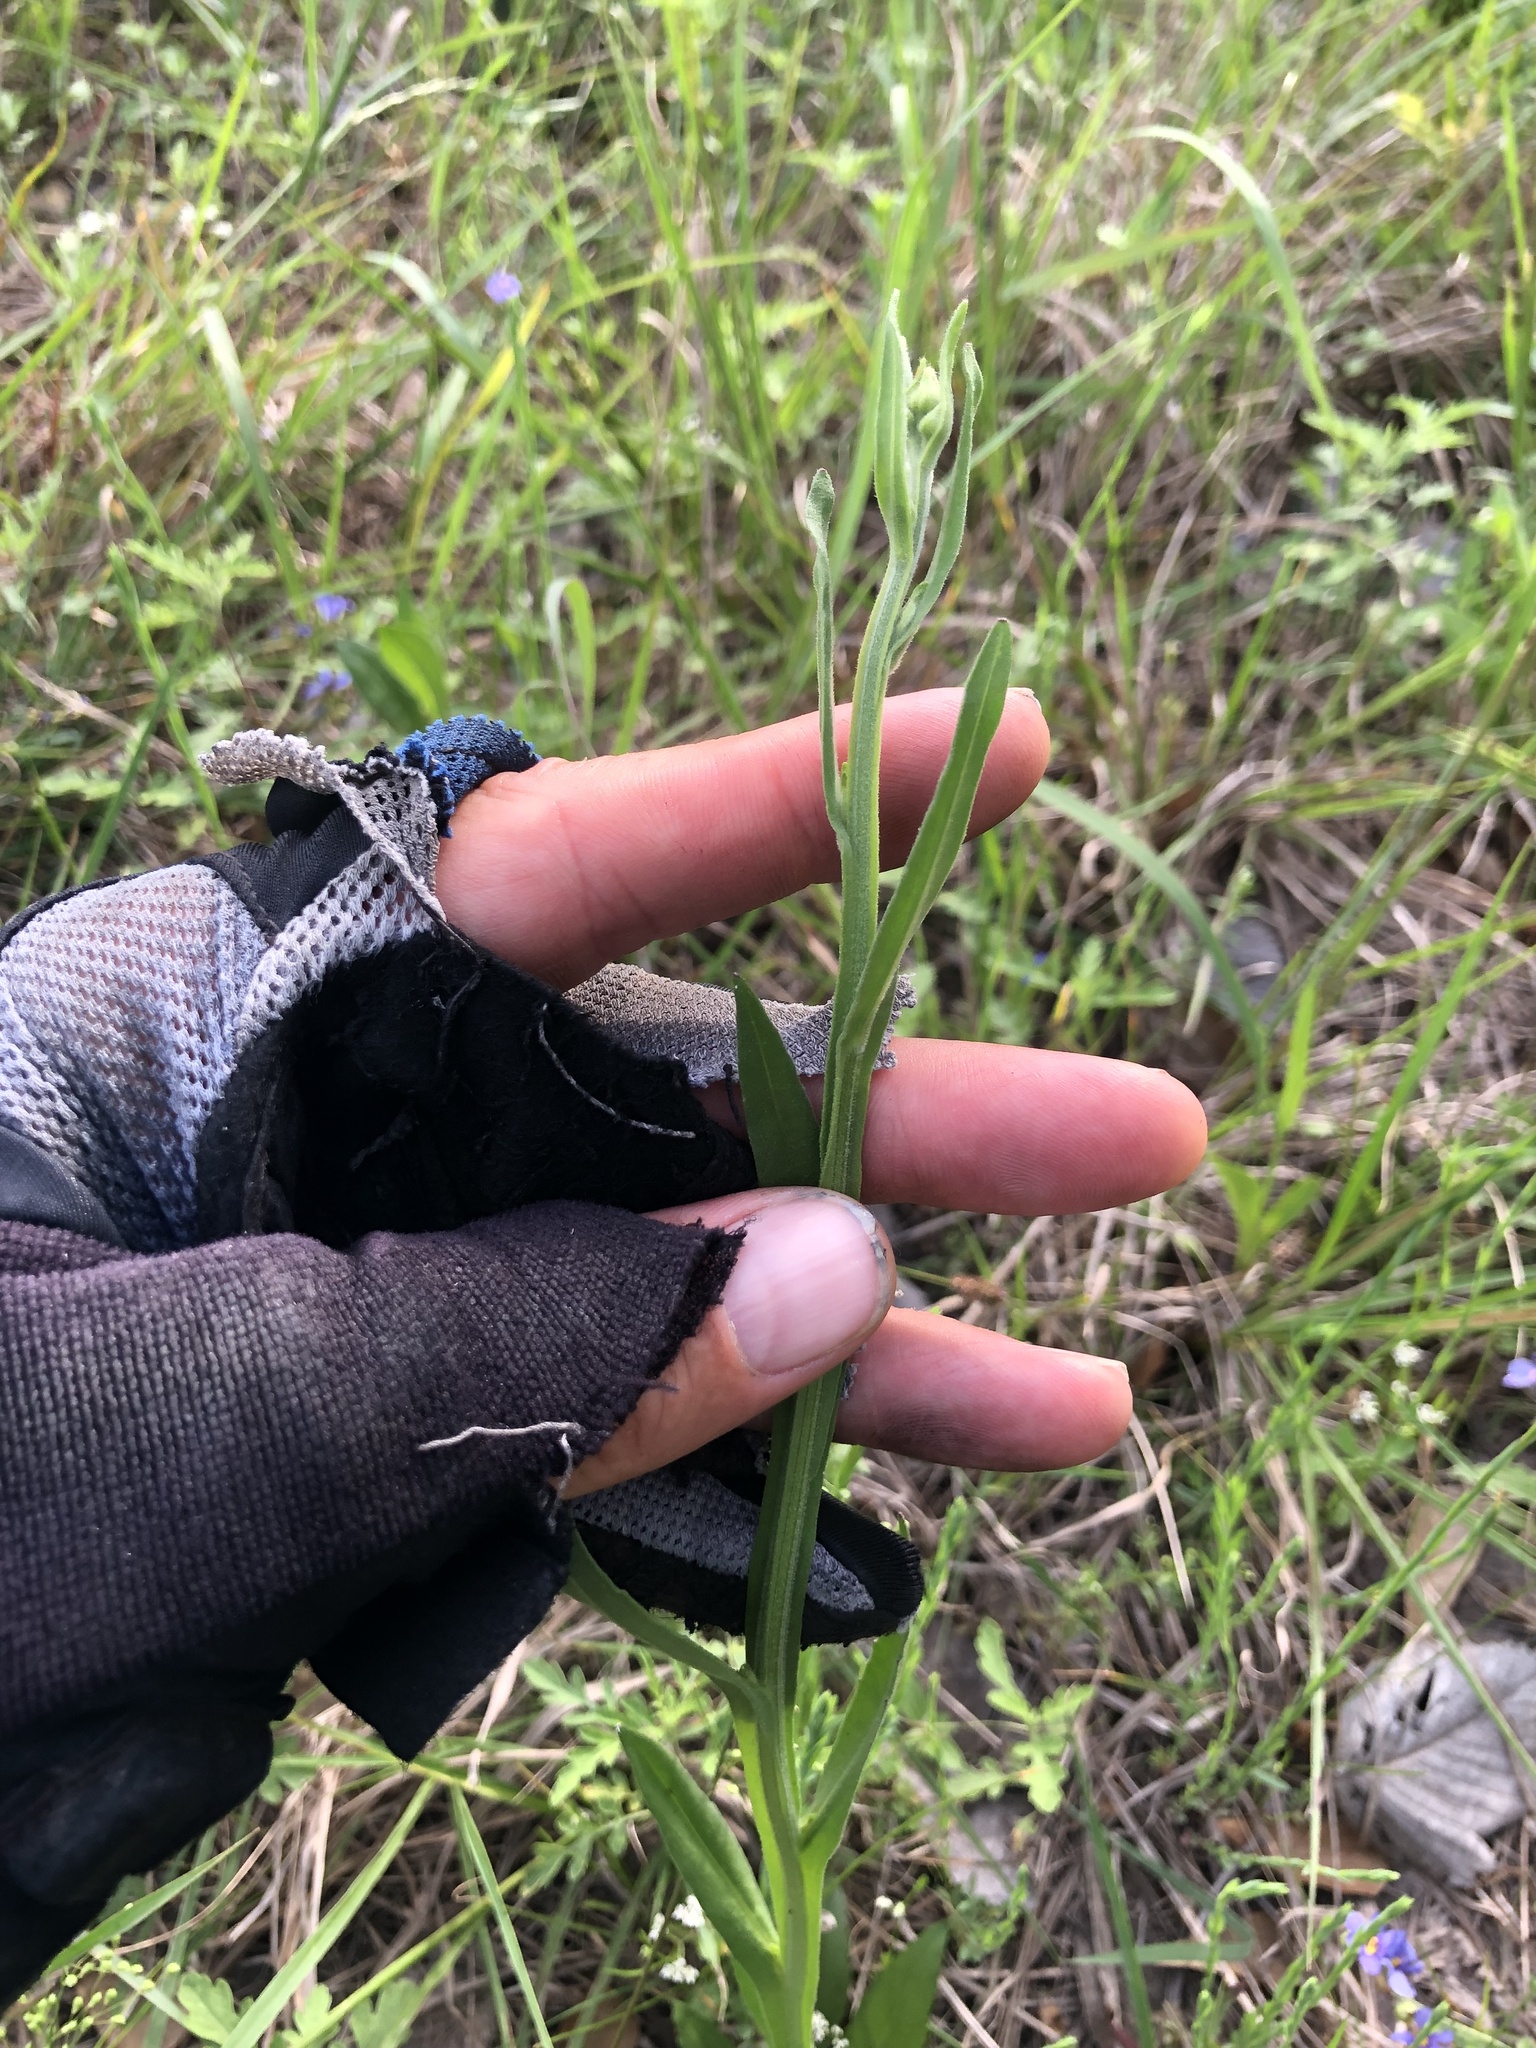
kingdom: Plantae
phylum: Tracheophyta
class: Magnoliopsida
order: Asterales
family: Asteraceae
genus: Helenium
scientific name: Helenium flexuosum
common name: Naked-flowered sneezeweed
